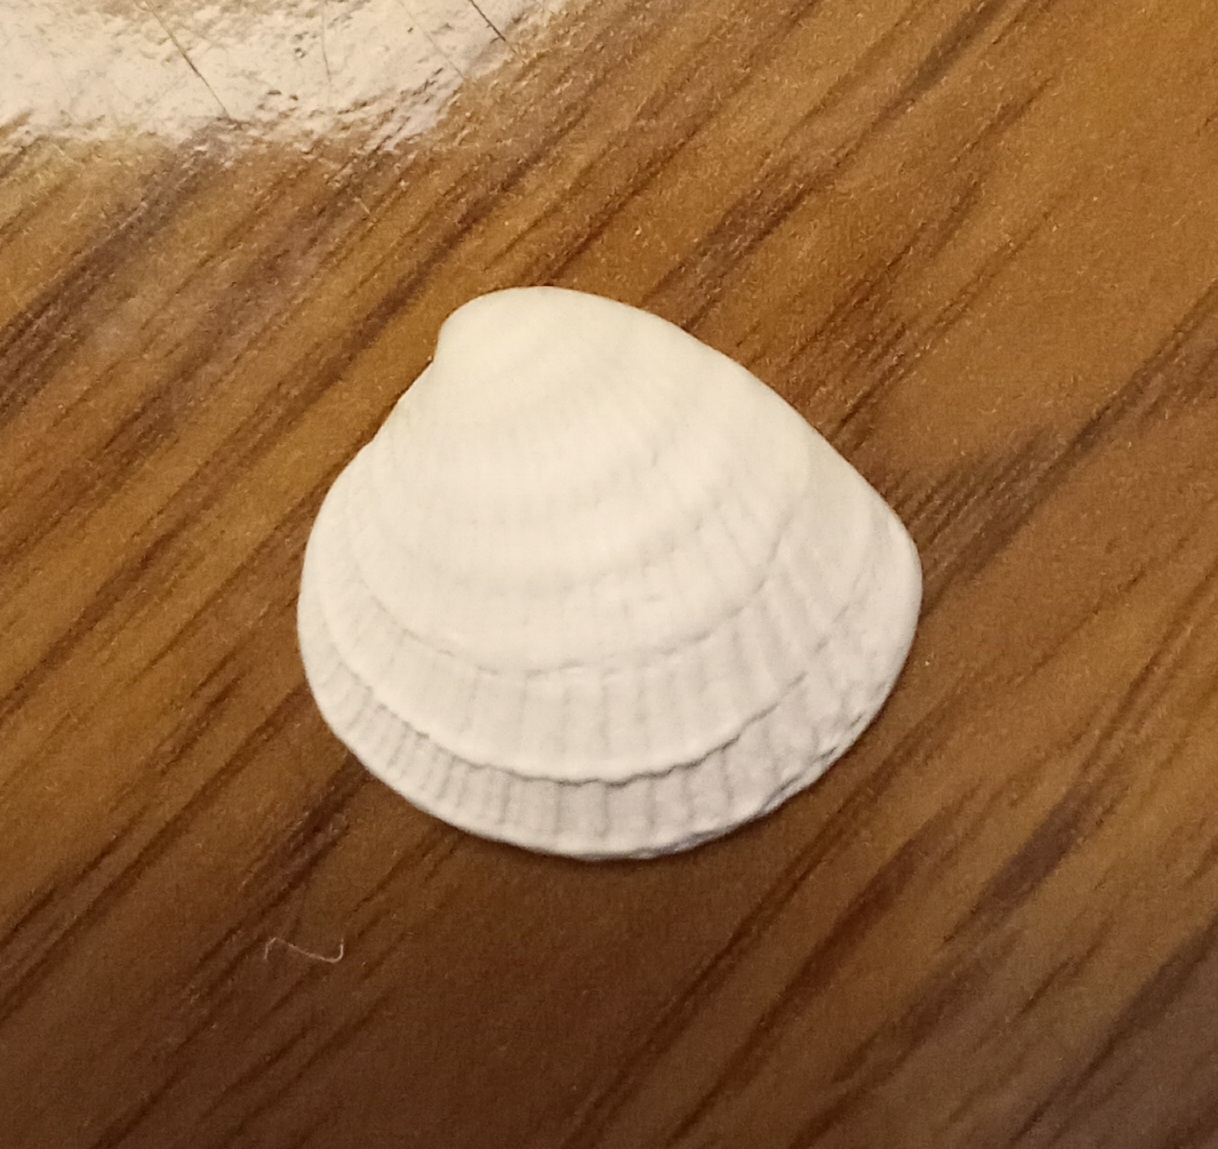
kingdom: Animalia
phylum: Mollusca
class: Bivalvia
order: Venerida
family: Veneridae
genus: Chione
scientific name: Chione elevata
